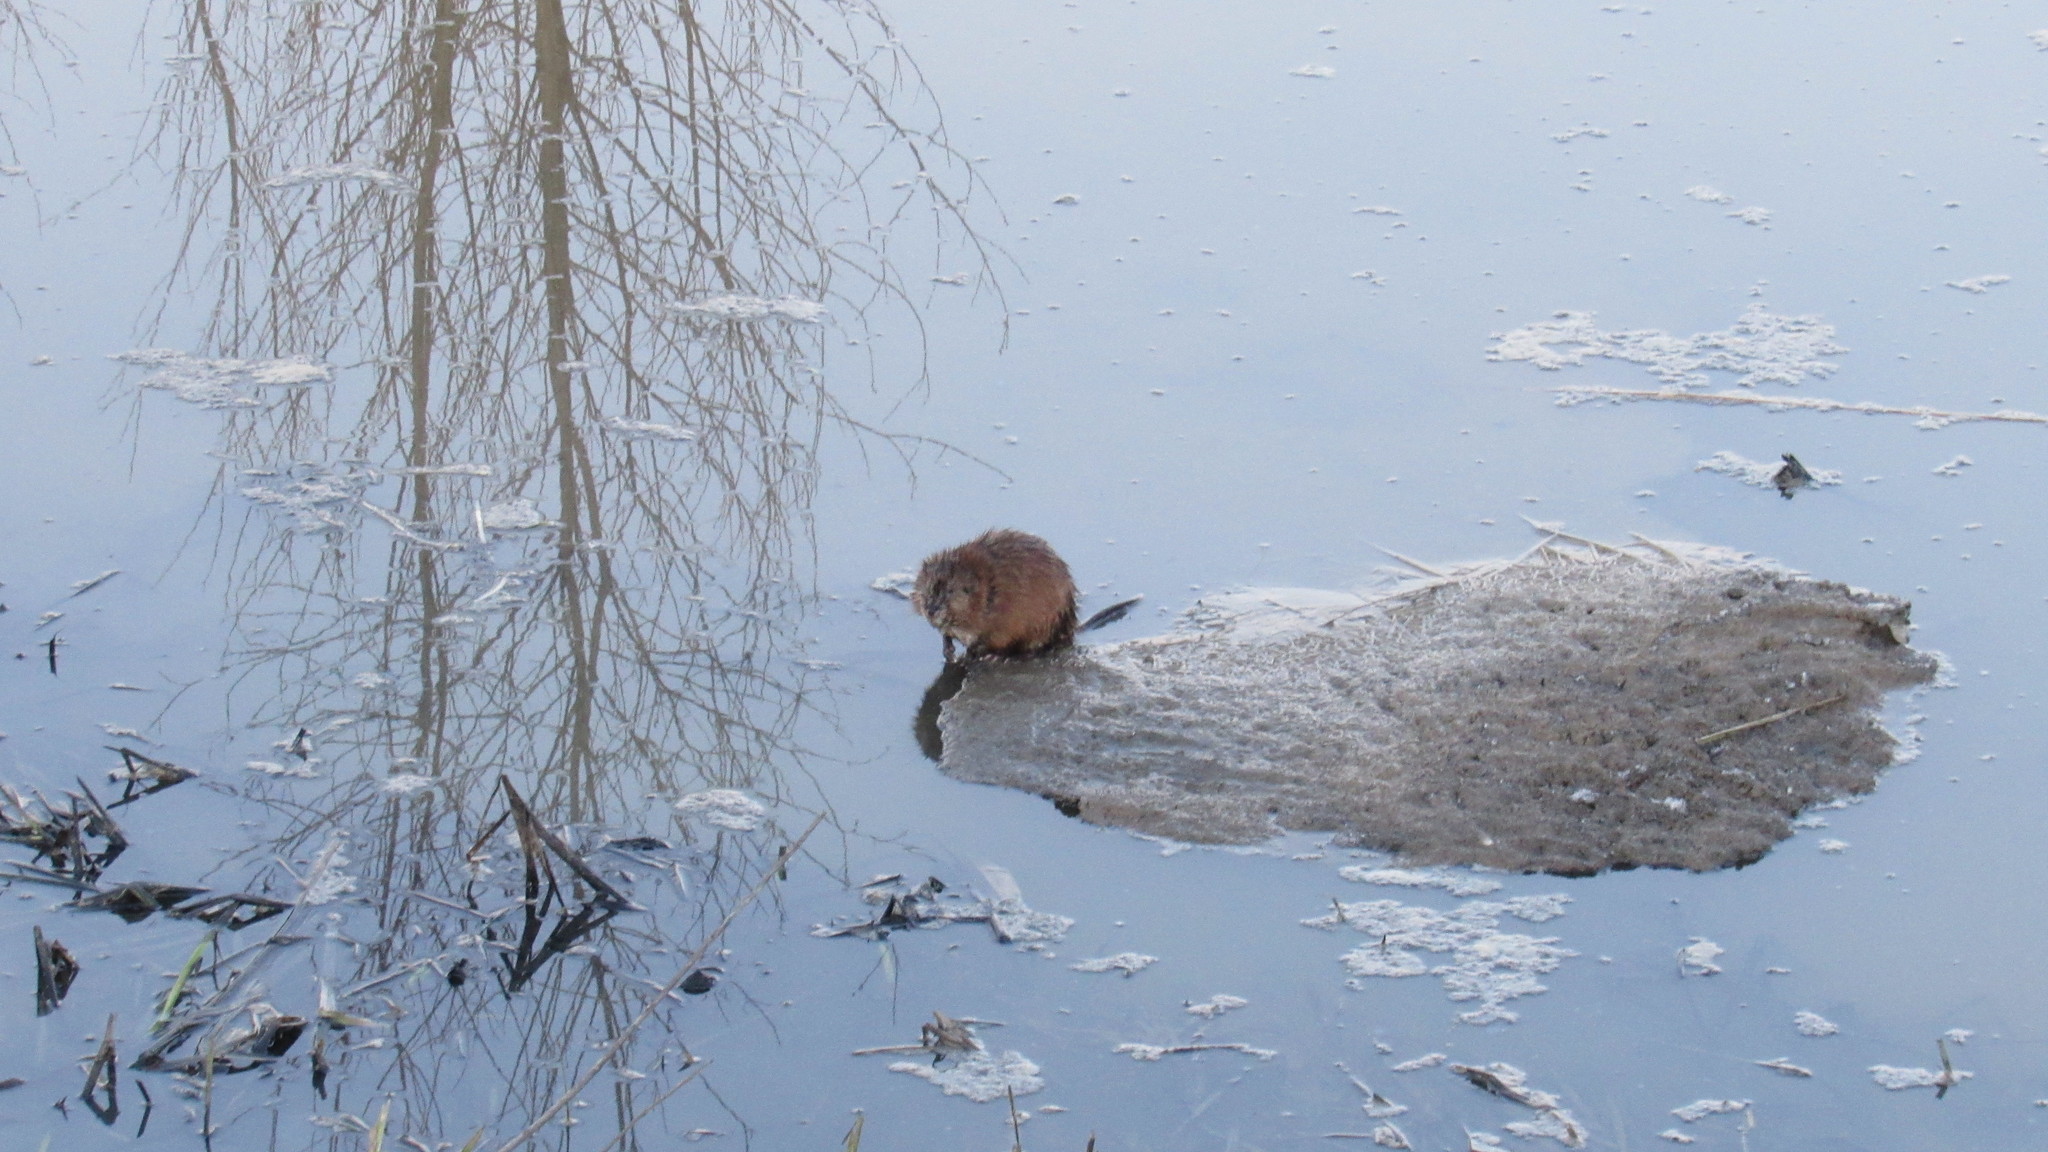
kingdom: Animalia
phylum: Chordata
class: Mammalia
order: Rodentia
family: Cricetidae
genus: Ondatra
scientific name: Ondatra zibethicus
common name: Muskrat
